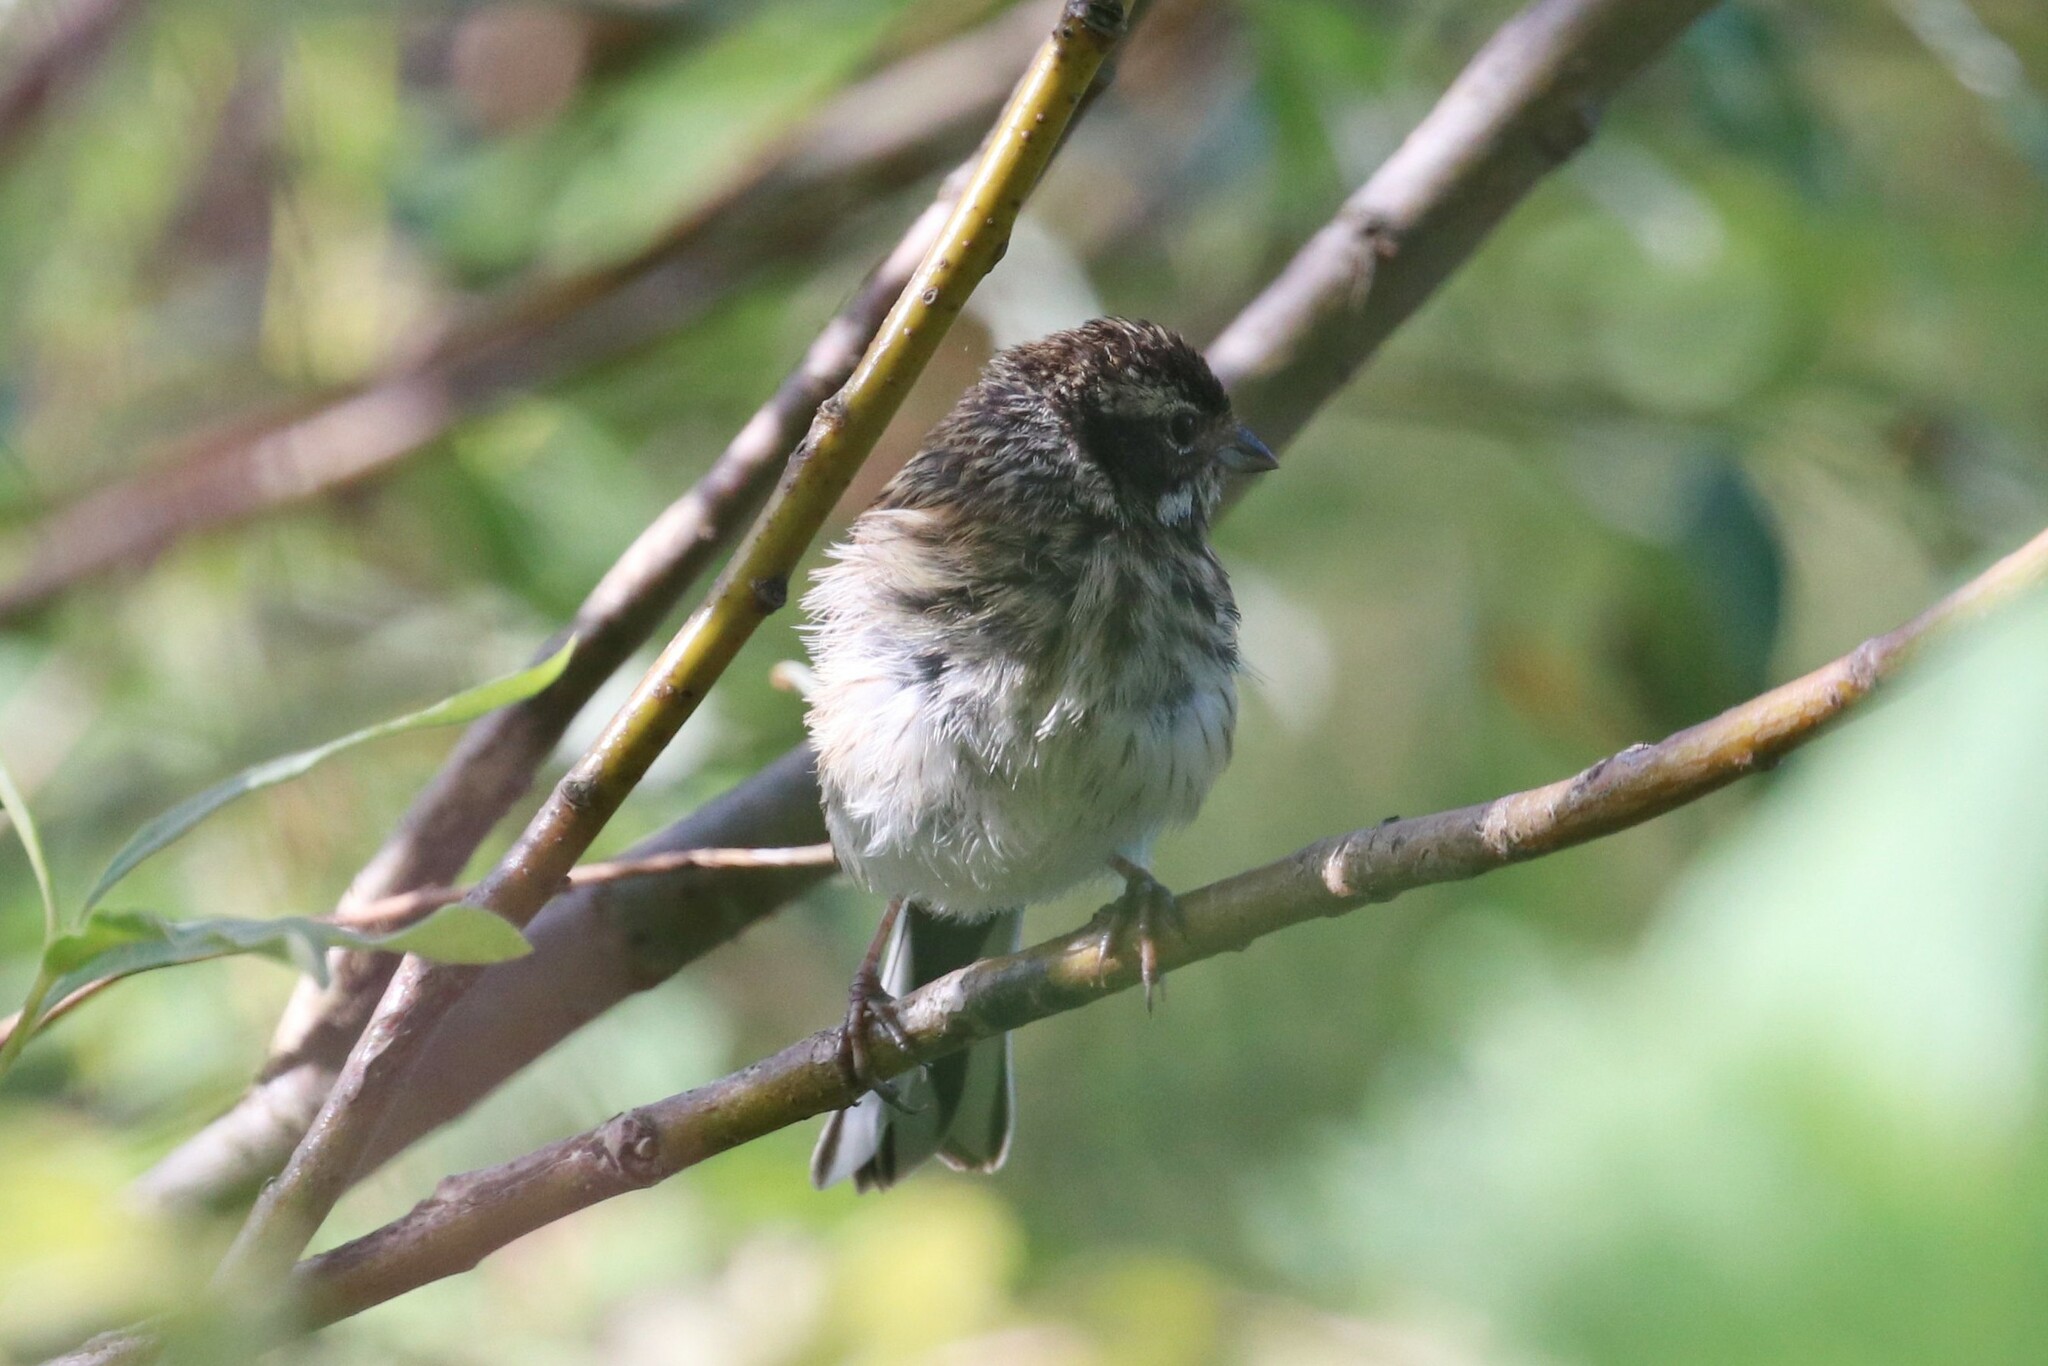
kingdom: Animalia
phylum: Chordata
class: Aves
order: Passeriformes
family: Emberizidae
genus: Emberiza
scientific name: Emberiza schoeniclus
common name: Reed bunting
